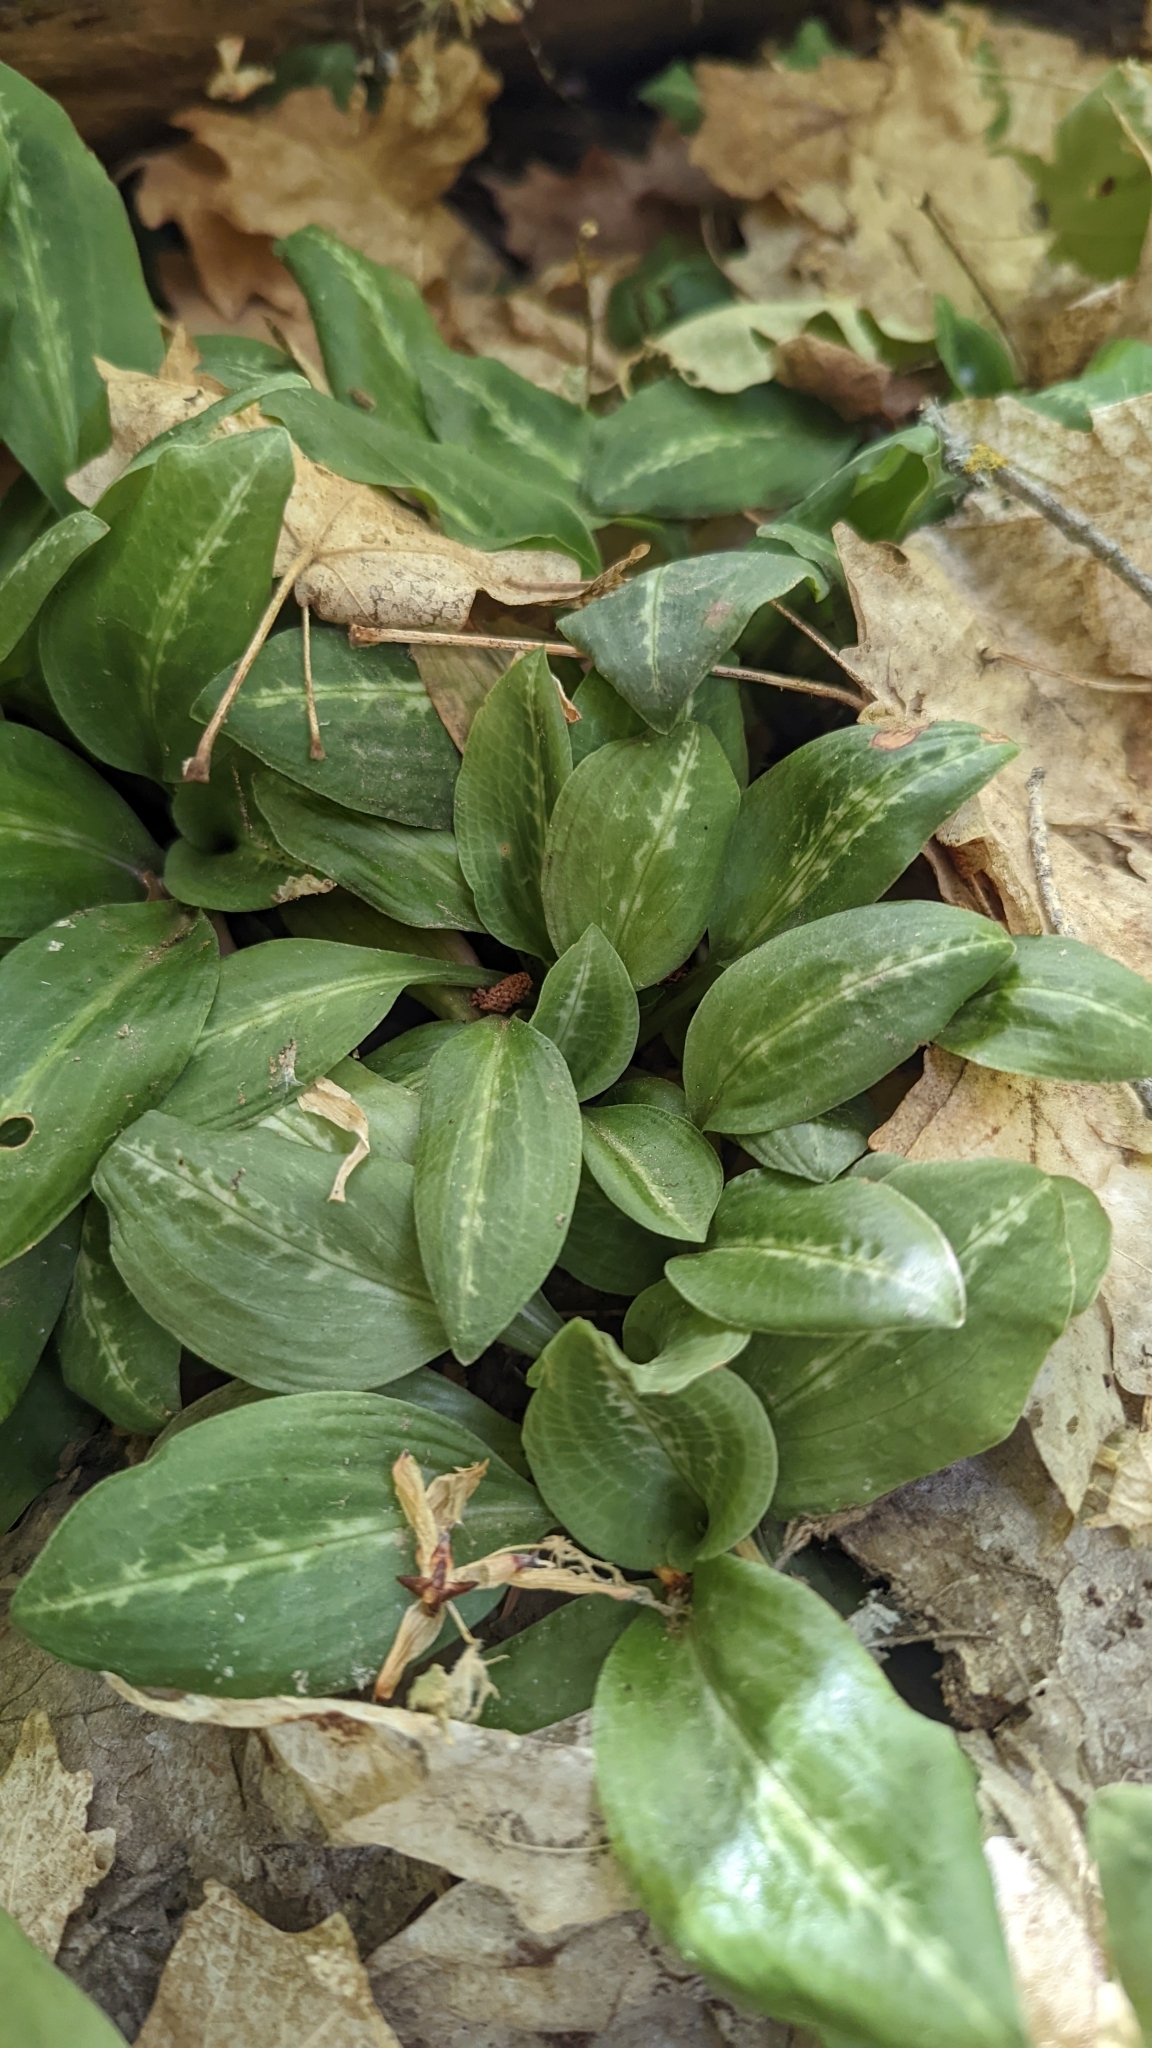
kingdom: Plantae
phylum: Tracheophyta
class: Liliopsida
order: Asparagales
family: Orchidaceae
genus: Goodyera
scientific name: Goodyera oblongifolia
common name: Giant rattlesnake-plantain
